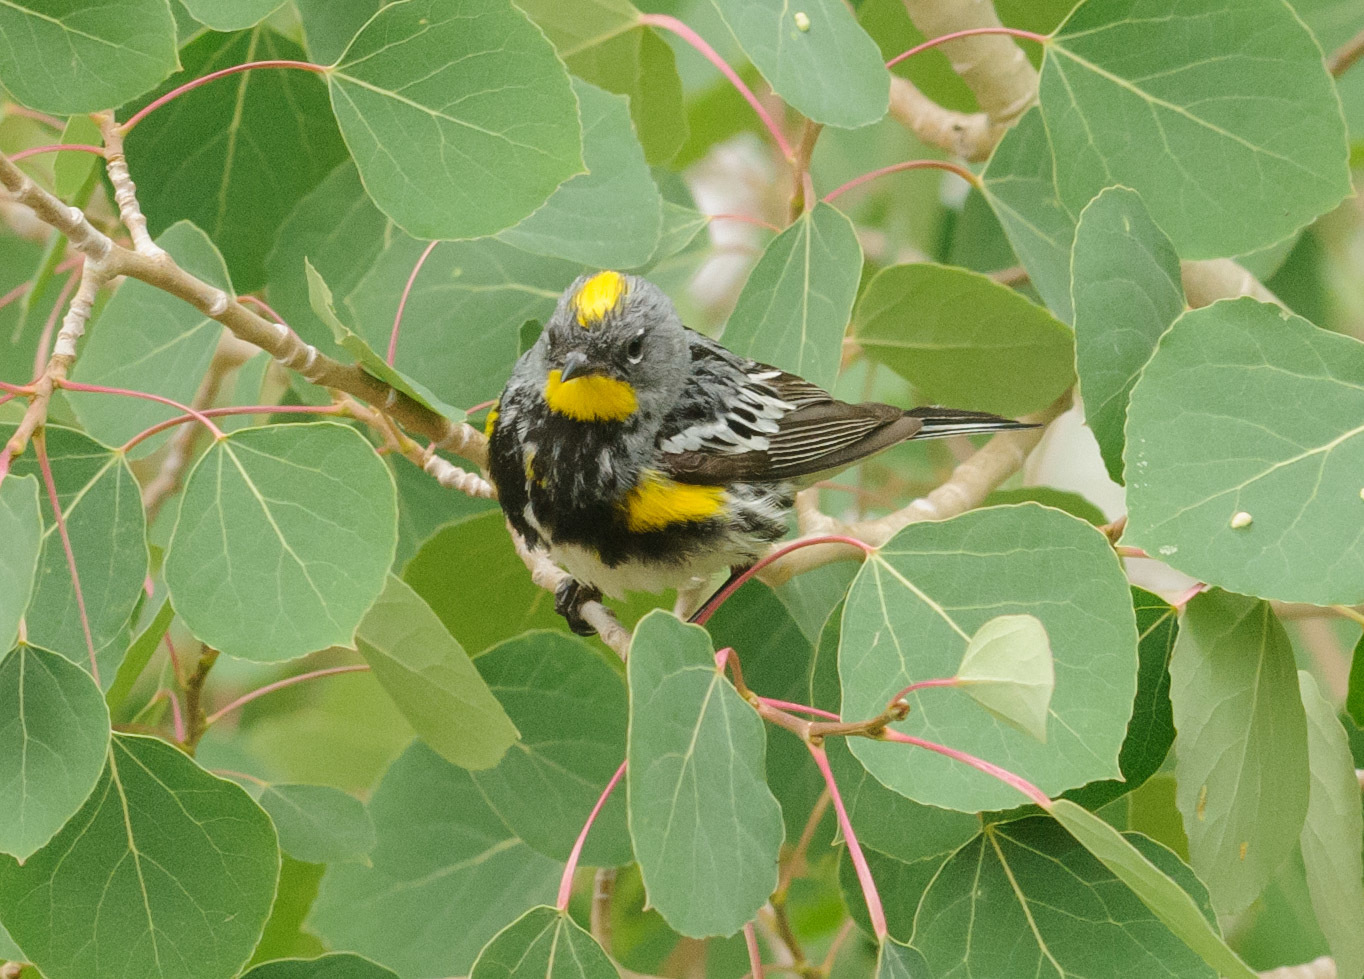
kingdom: Animalia
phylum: Chordata
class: Aves
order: Passeriformes
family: Parulidae
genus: Setophaga
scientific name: Setophaga auduboni
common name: Audubon's warbler
